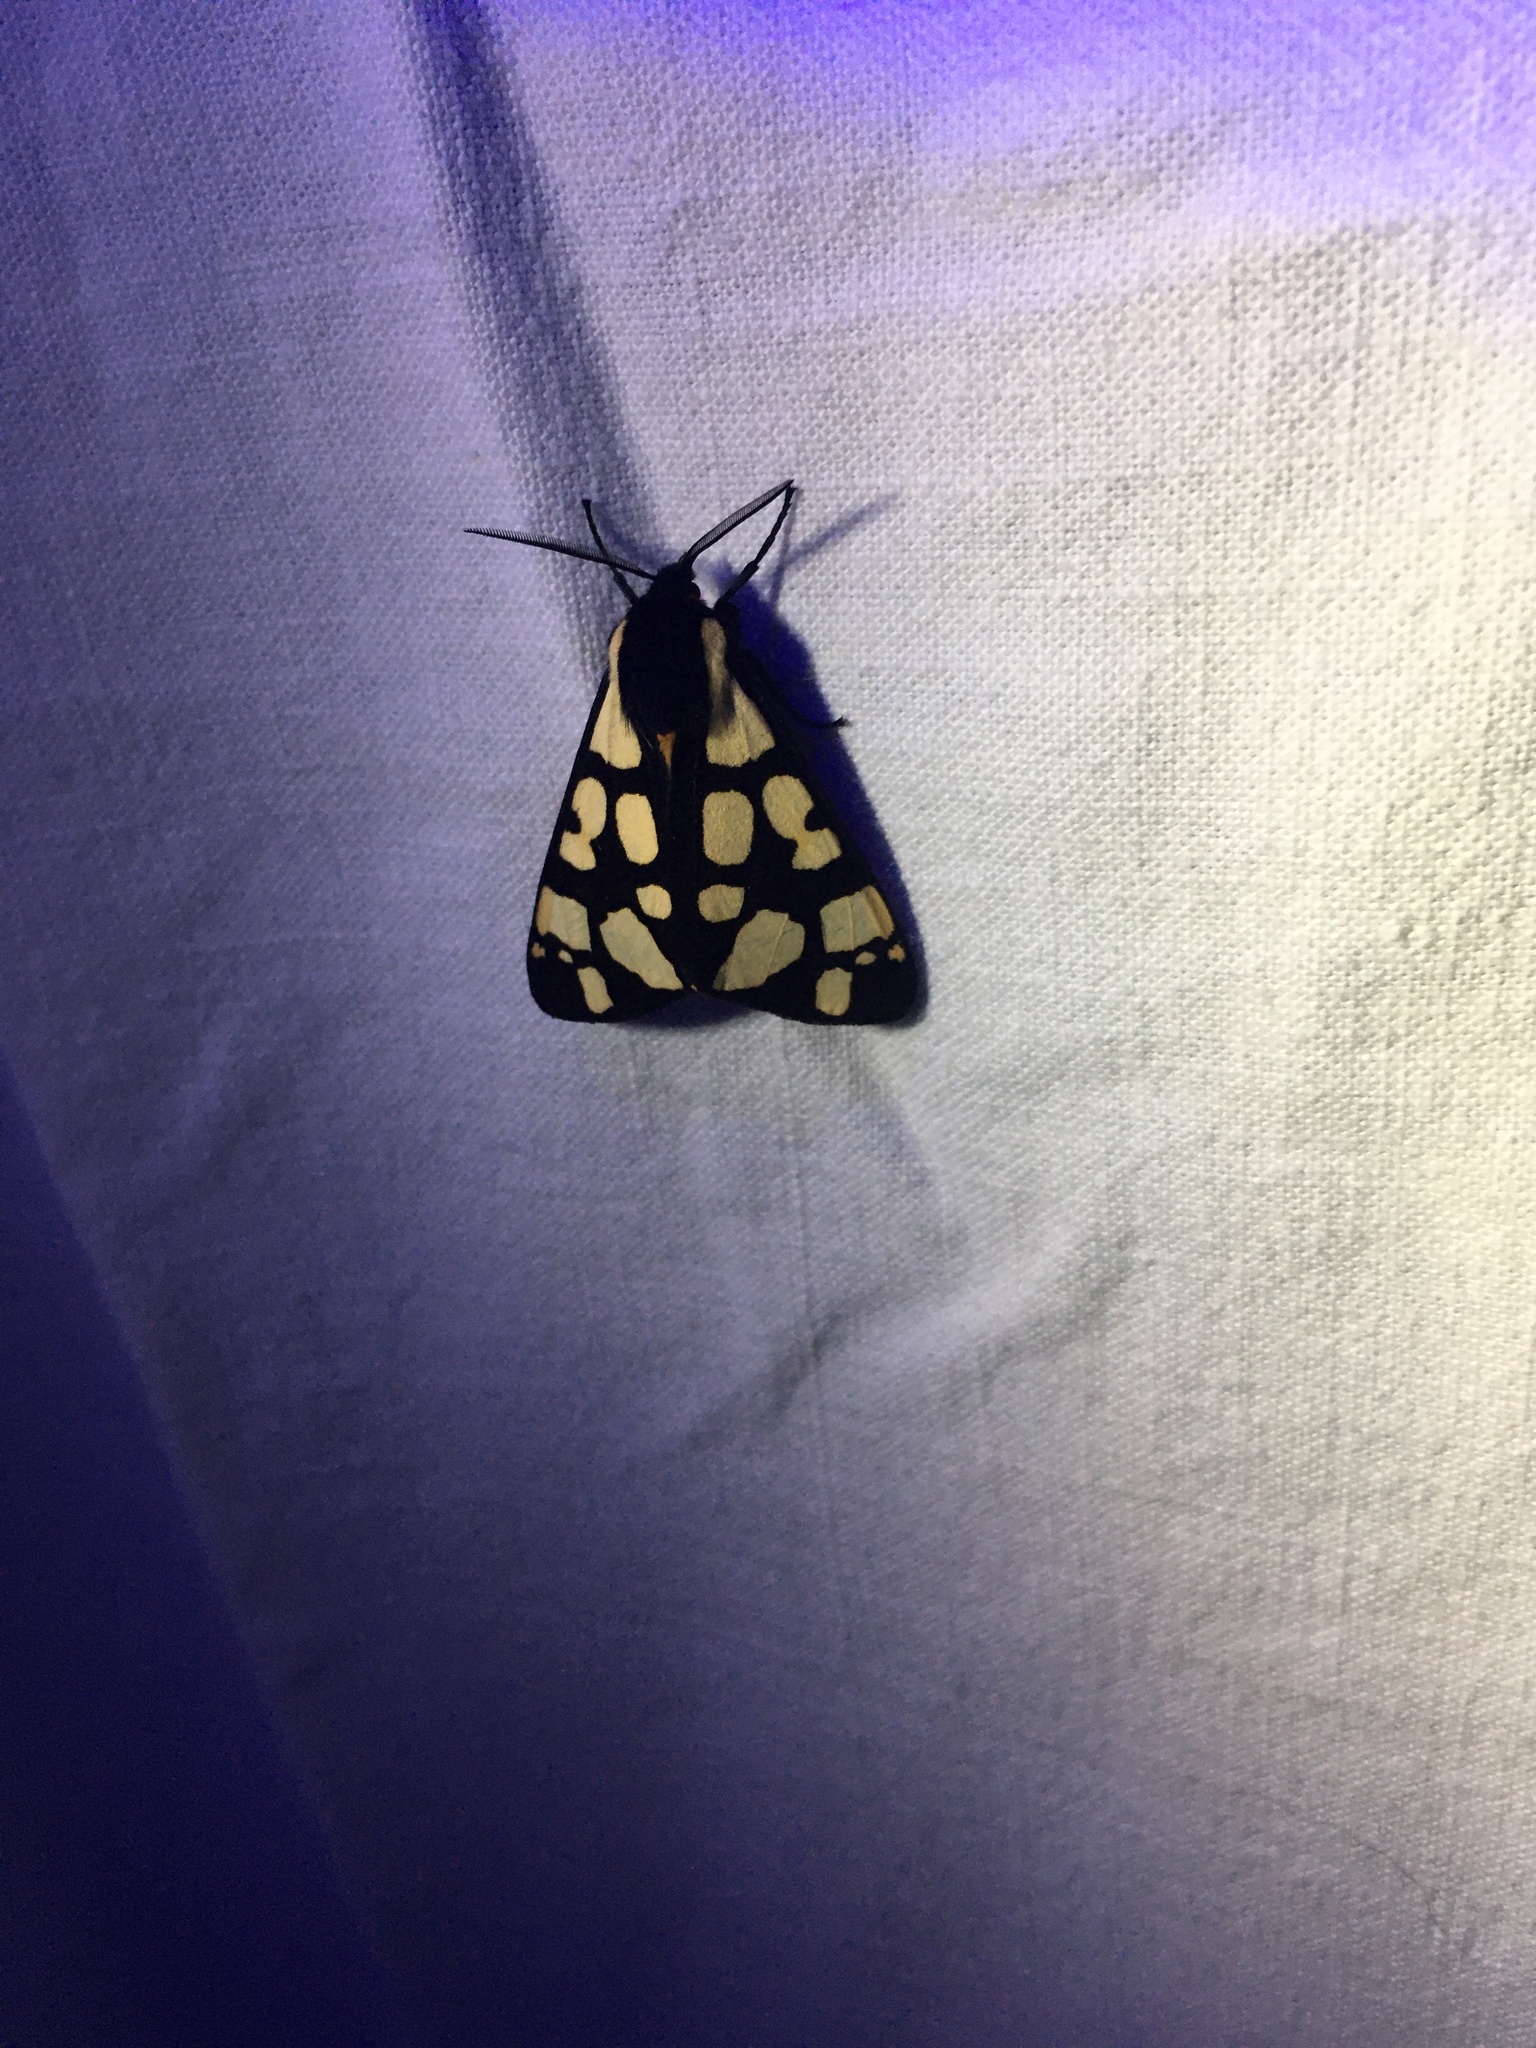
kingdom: Animalia
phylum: Arthropoda
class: Insecta
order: Lepidoptera
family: Erebidae
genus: Epicallia
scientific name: Epicallia villica
